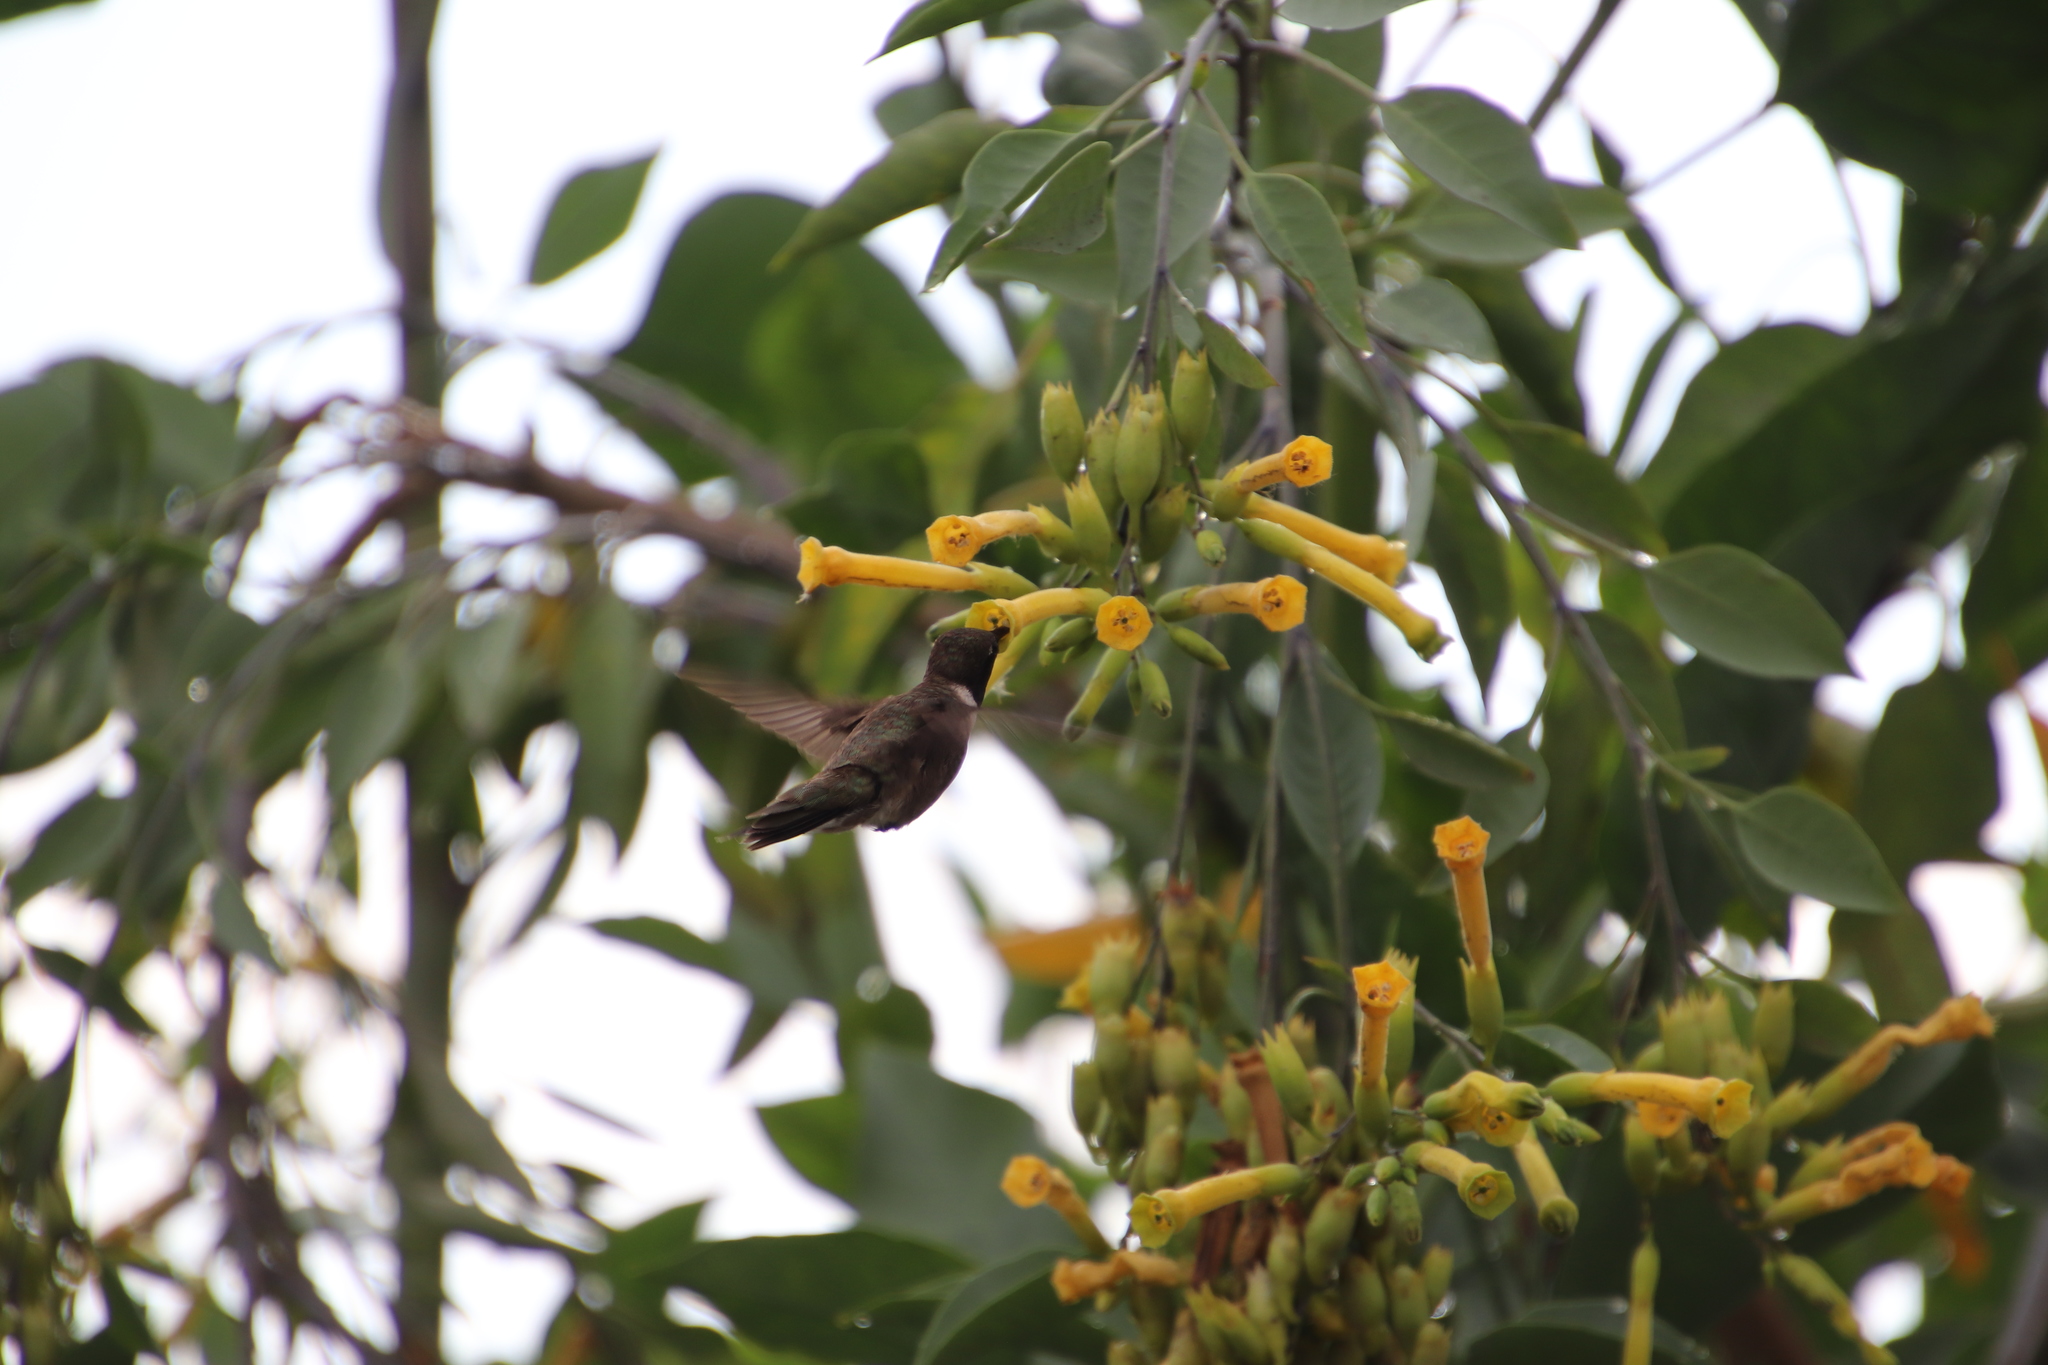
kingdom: Animalia
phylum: Chordata
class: Aves
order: Apodiformes
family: Trochilidae
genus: Archilochus
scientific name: Archilochus alexandri
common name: Black-chinned hummingbird
